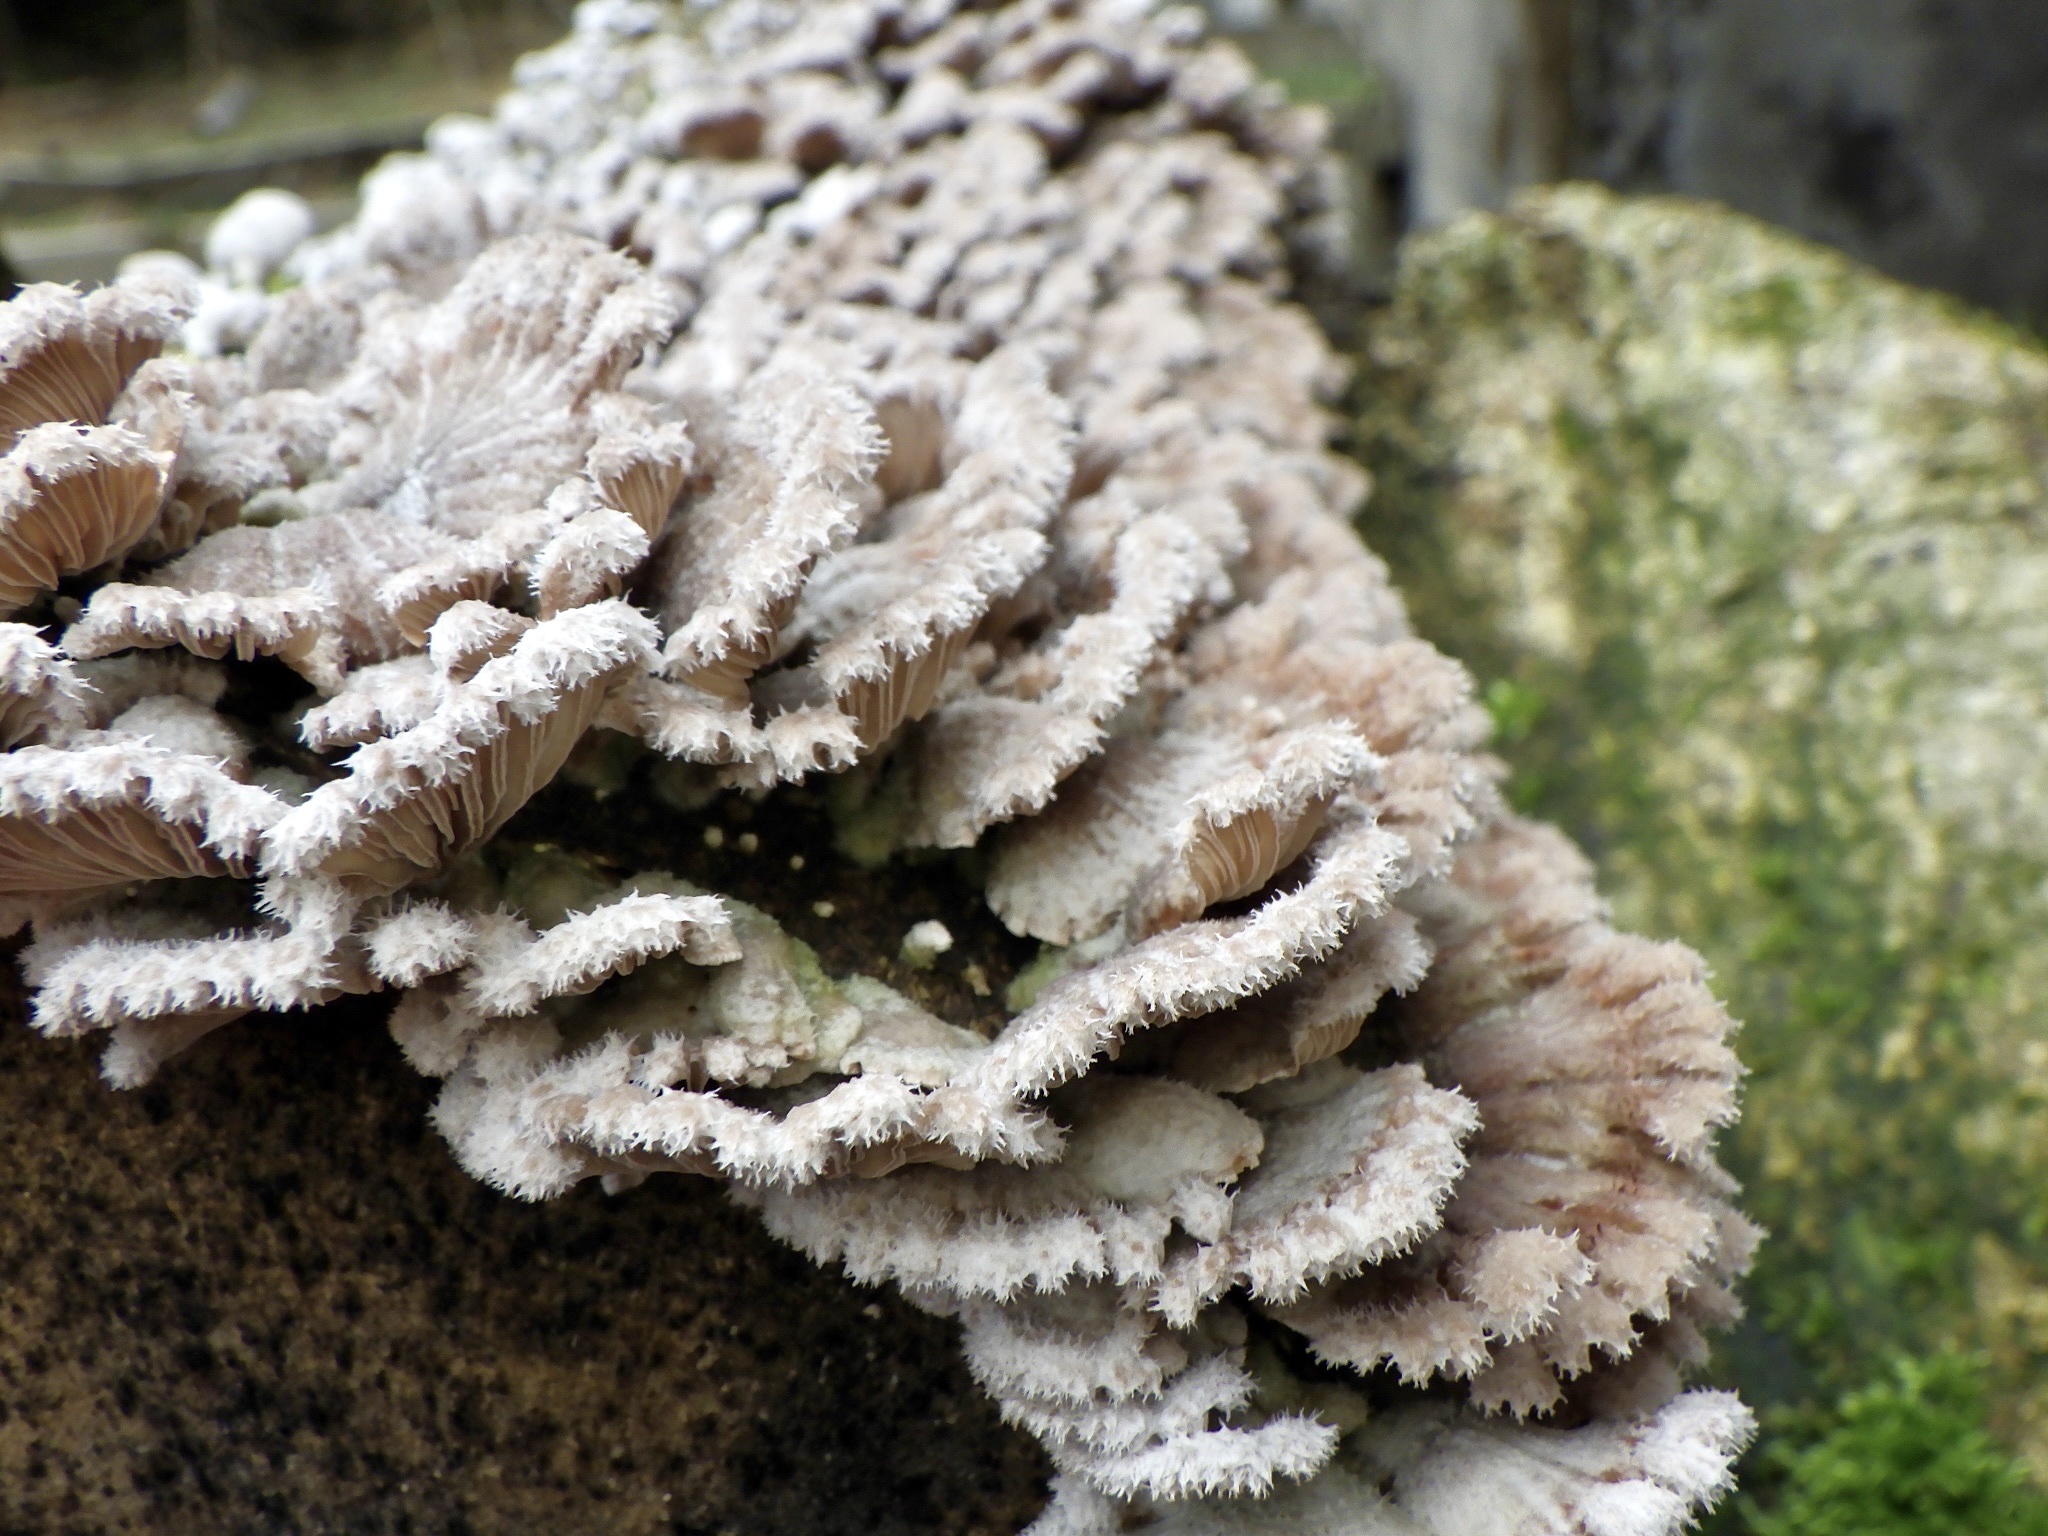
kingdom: Fungi
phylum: Basidiomycota
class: Agaricomycetes
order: Agaricales
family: Schizophyllaceae
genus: Schizophyllum
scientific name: Schizophyllum commune
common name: Common porecrust
